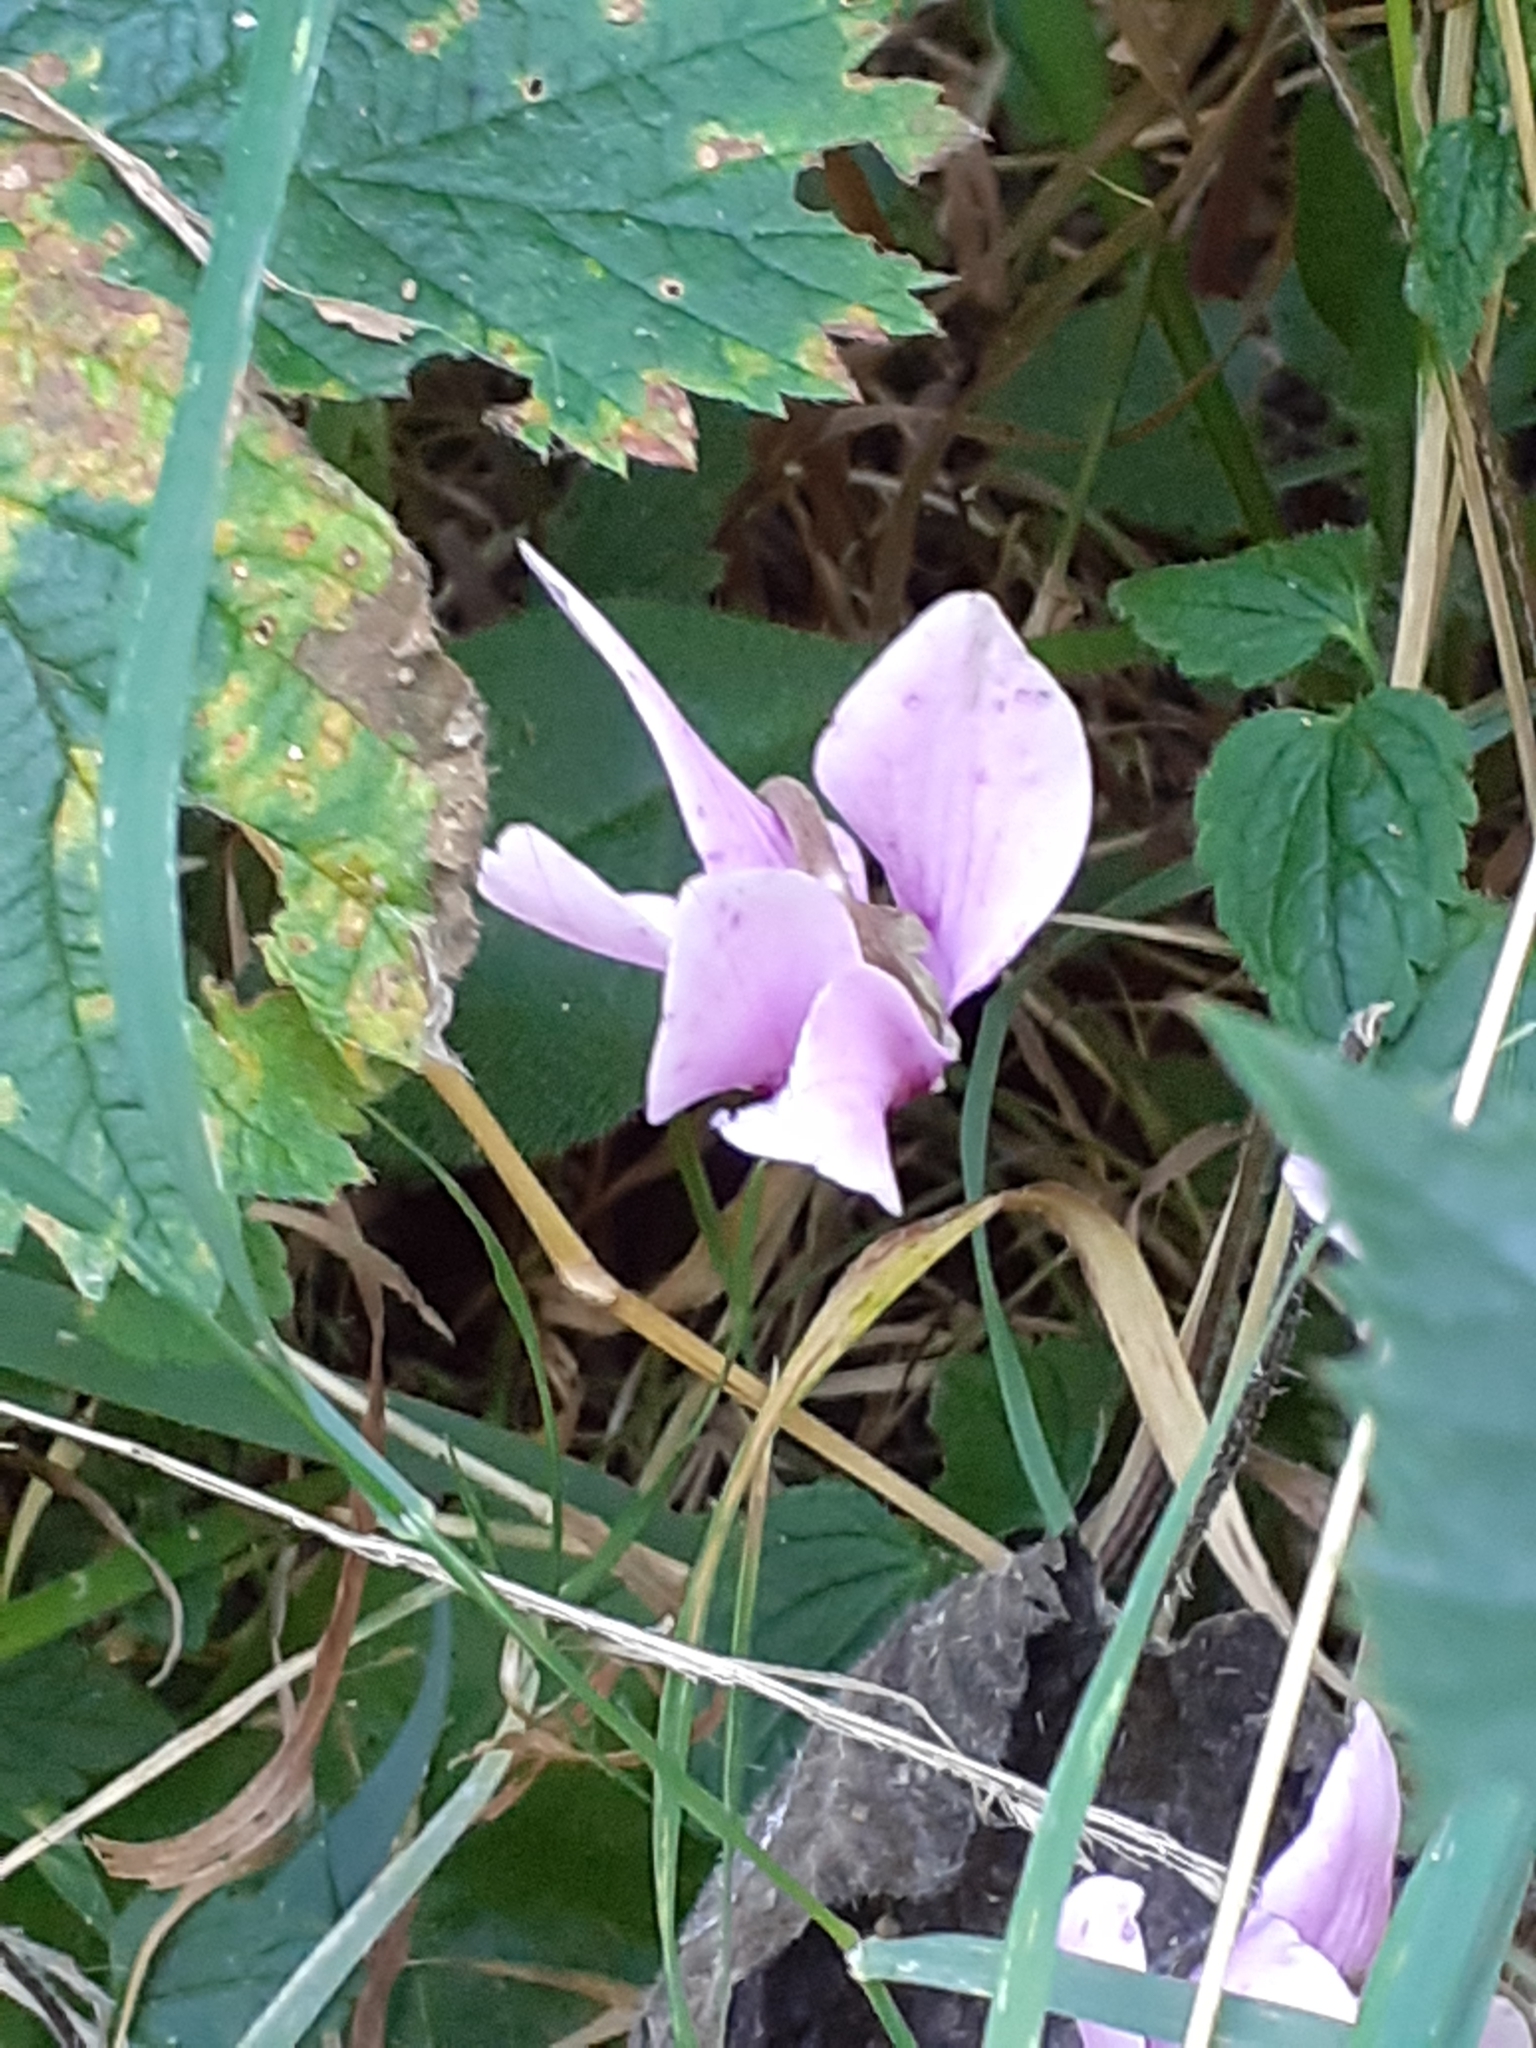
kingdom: Plantae
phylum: Tracheophyta
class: Magnoliopsida
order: Ericales
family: Primulaceae
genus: Cyclamen
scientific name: Cyclamen hederifolium
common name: Sowbread
